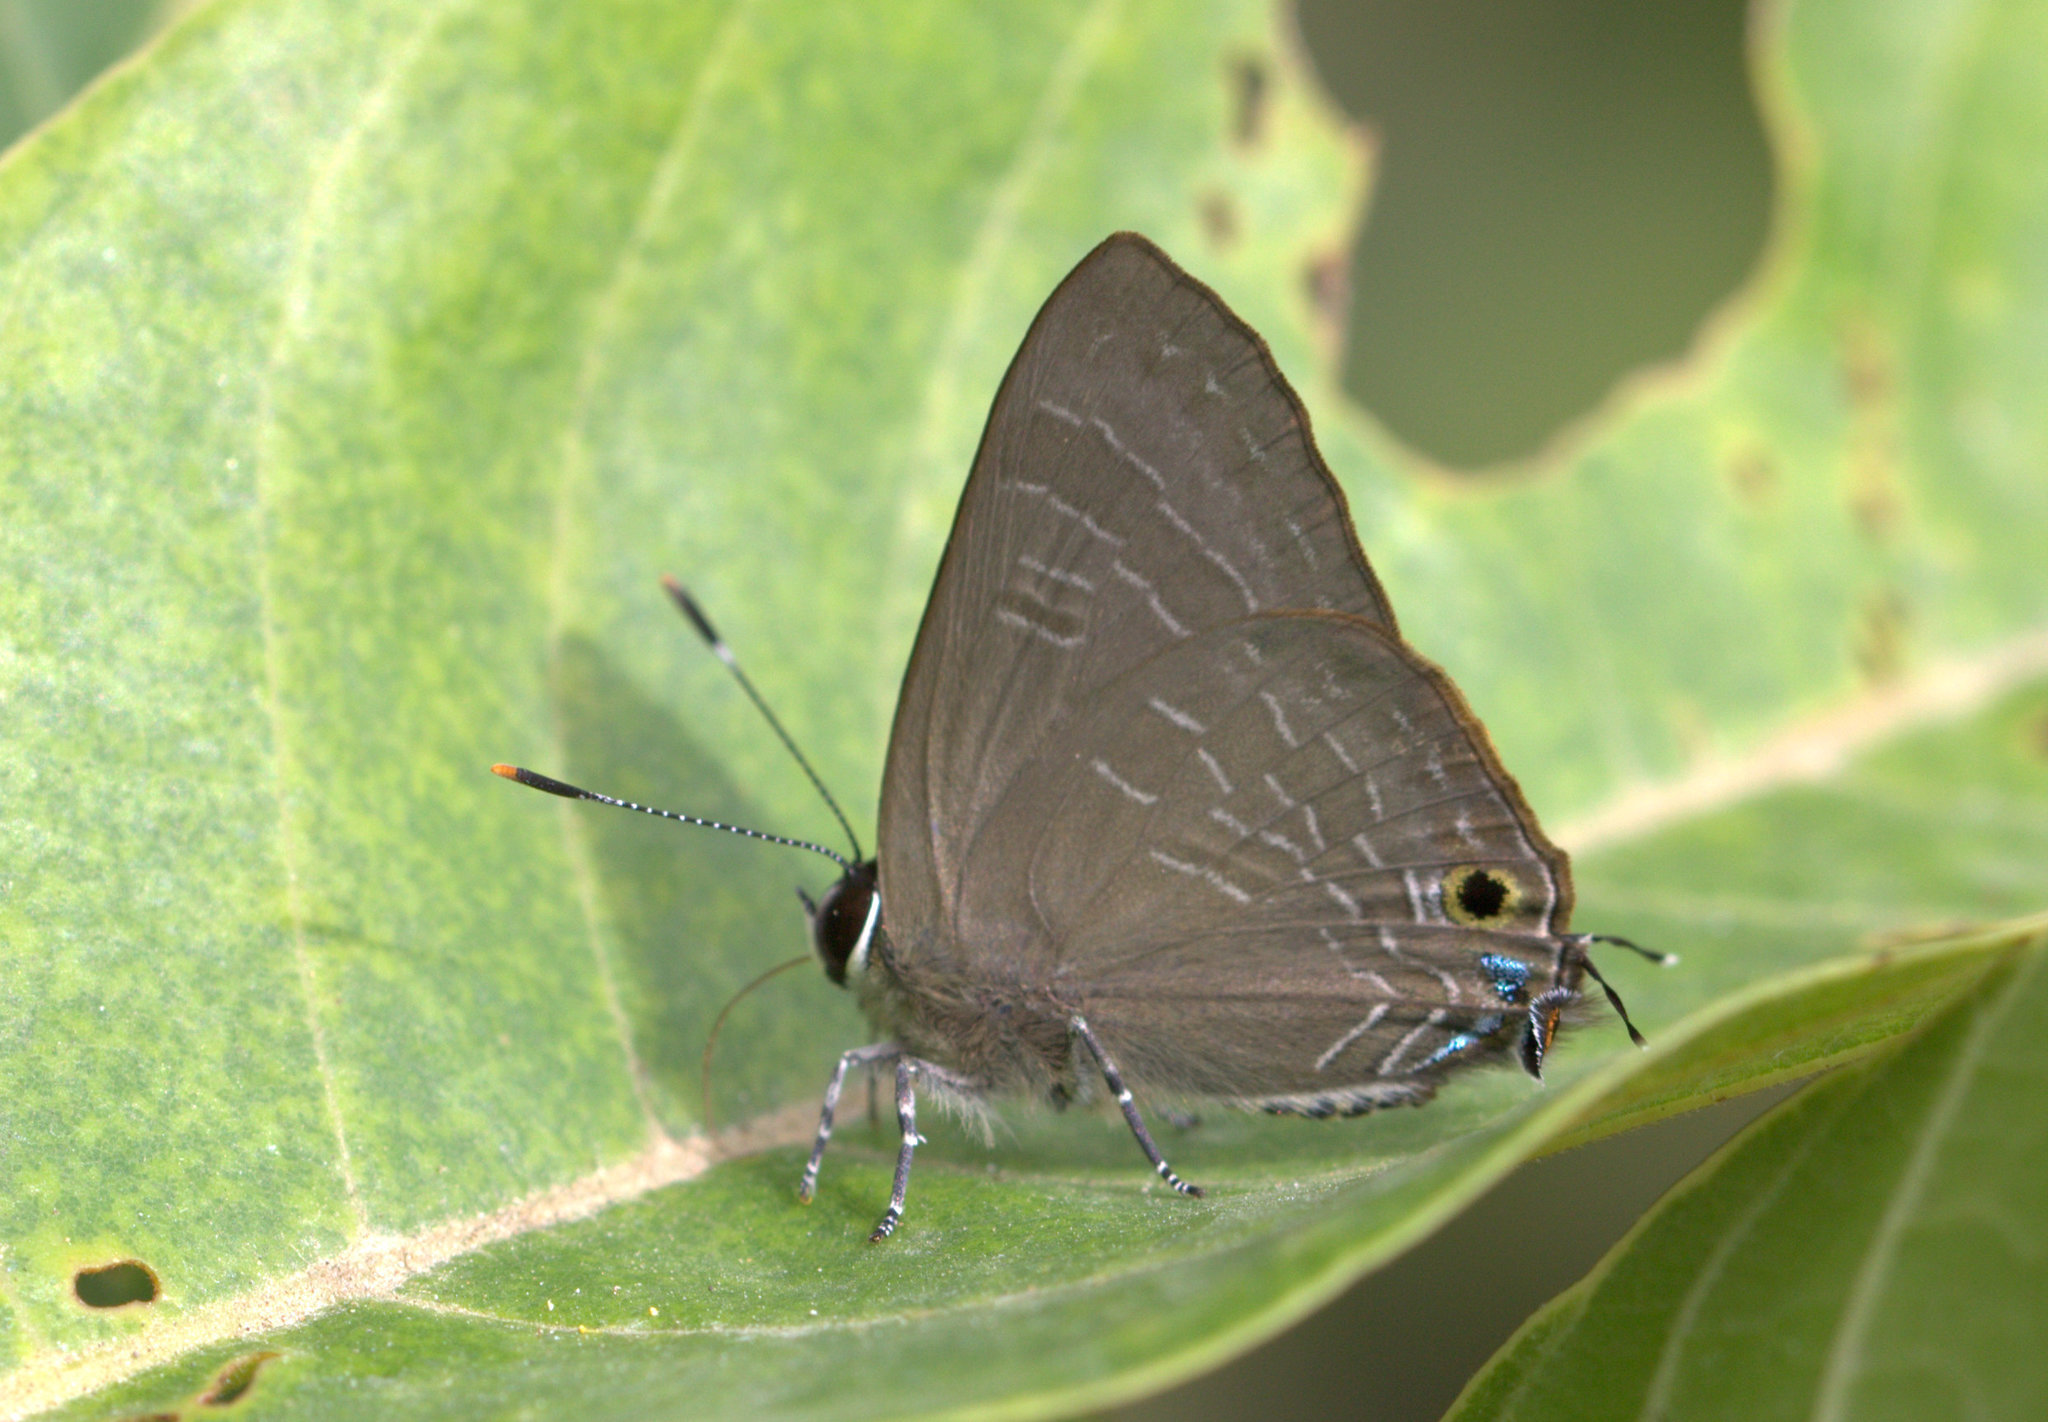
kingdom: Animalia
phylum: Arthropoda
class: Insecta
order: Lepidoptera
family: Lycaenidae
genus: Deudorix
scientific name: Deudorix epijarbas
